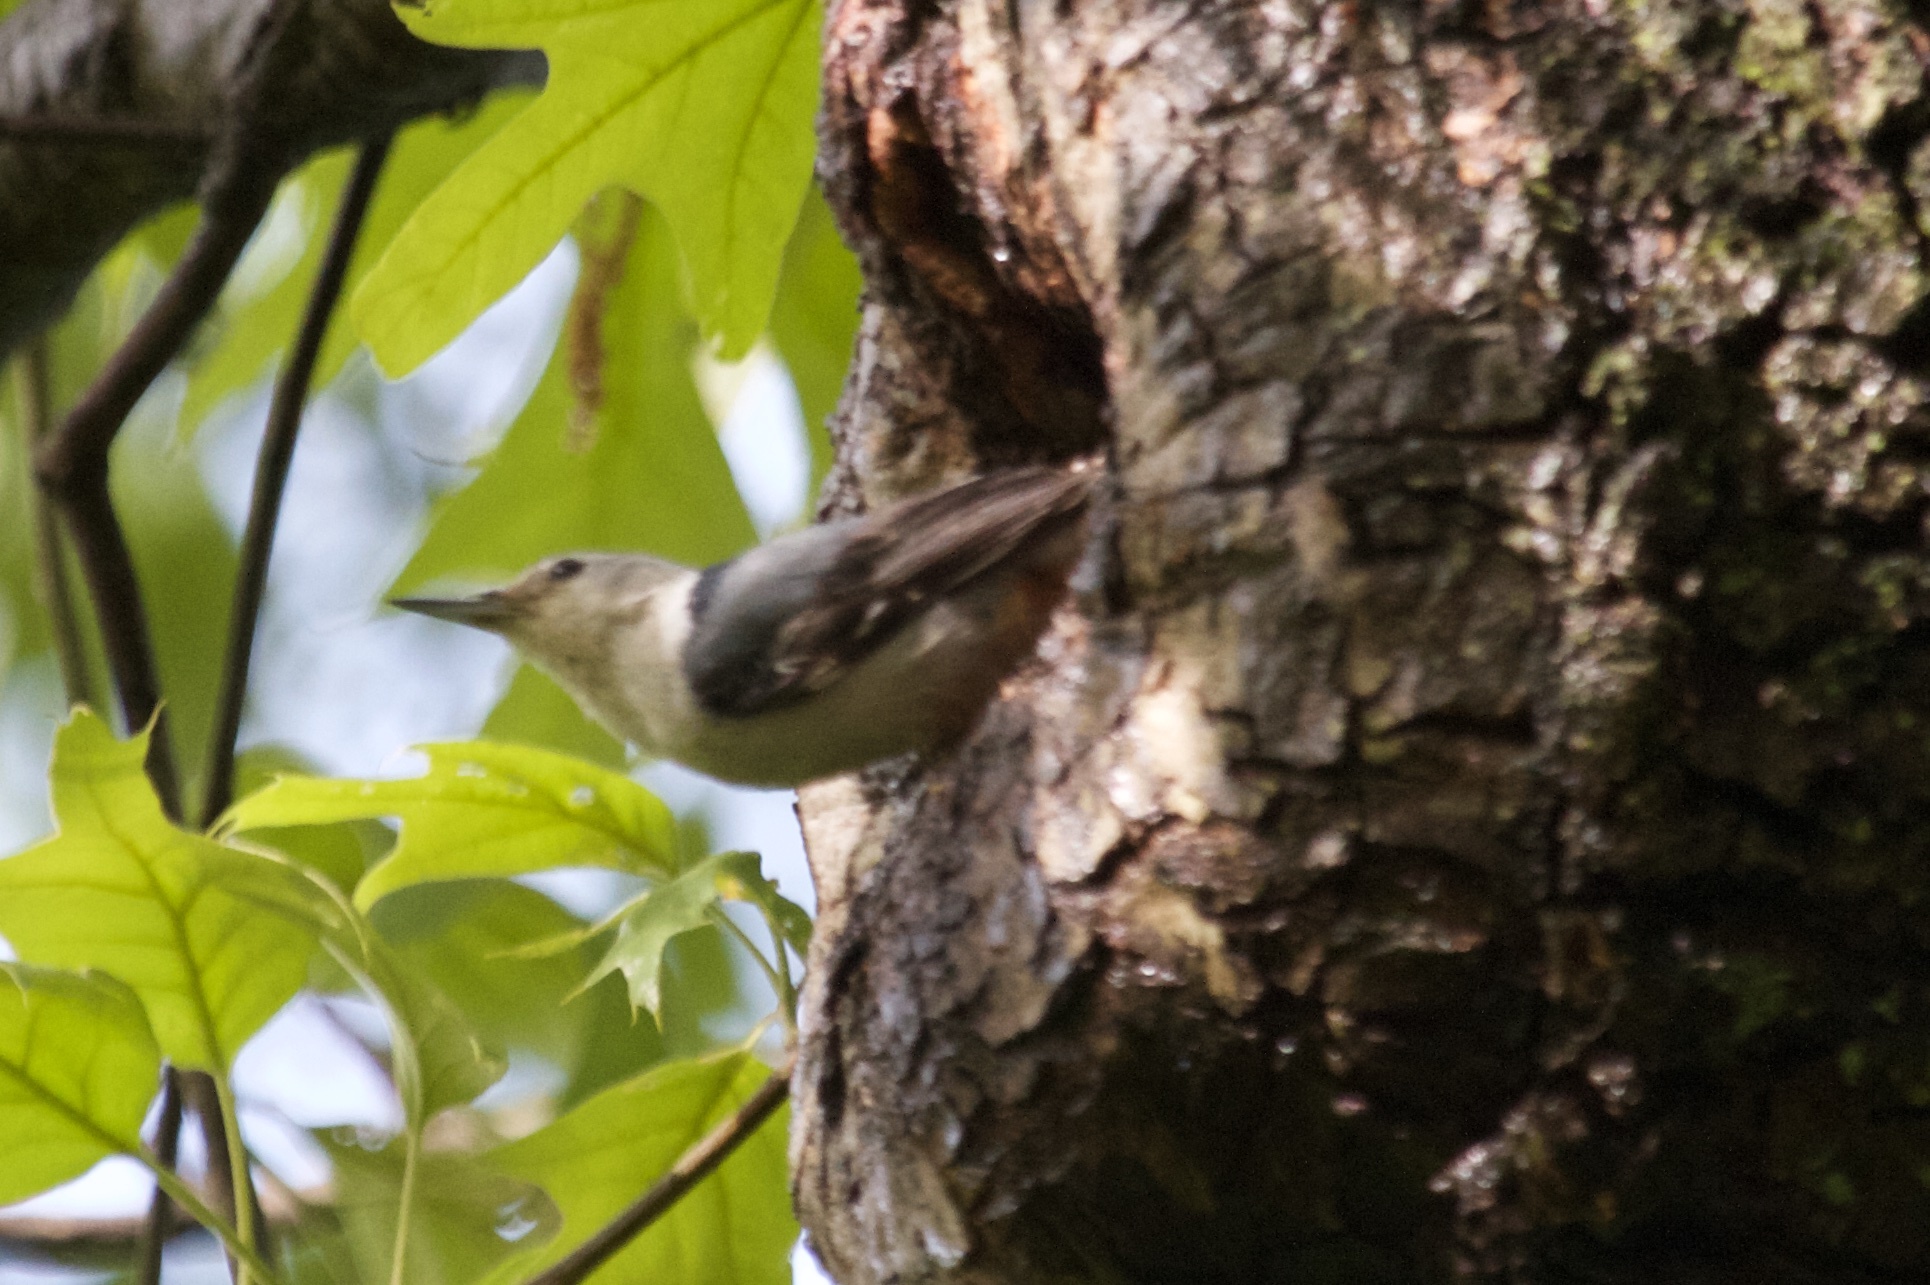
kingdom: Animalia
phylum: Chordata
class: Aves
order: Passeriformes
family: Sittidae
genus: Sitta
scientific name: Sitta carolinensis
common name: White-breasted nuthatch
